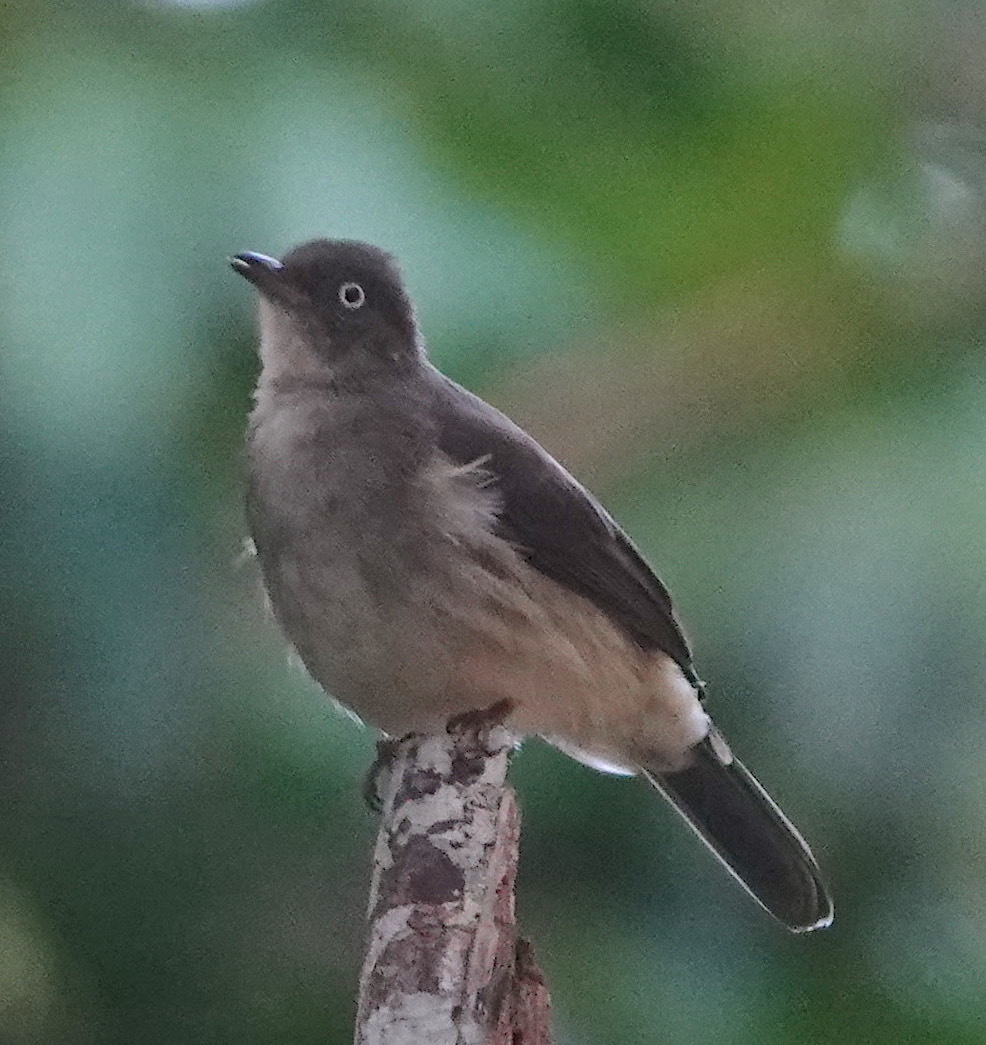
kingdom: Animalia
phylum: Chordata
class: Aves
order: Passeriformes
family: Pycnonotidae
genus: Pycnonotus
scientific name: Pycnonotus simplex
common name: Cream-vented bulbul
